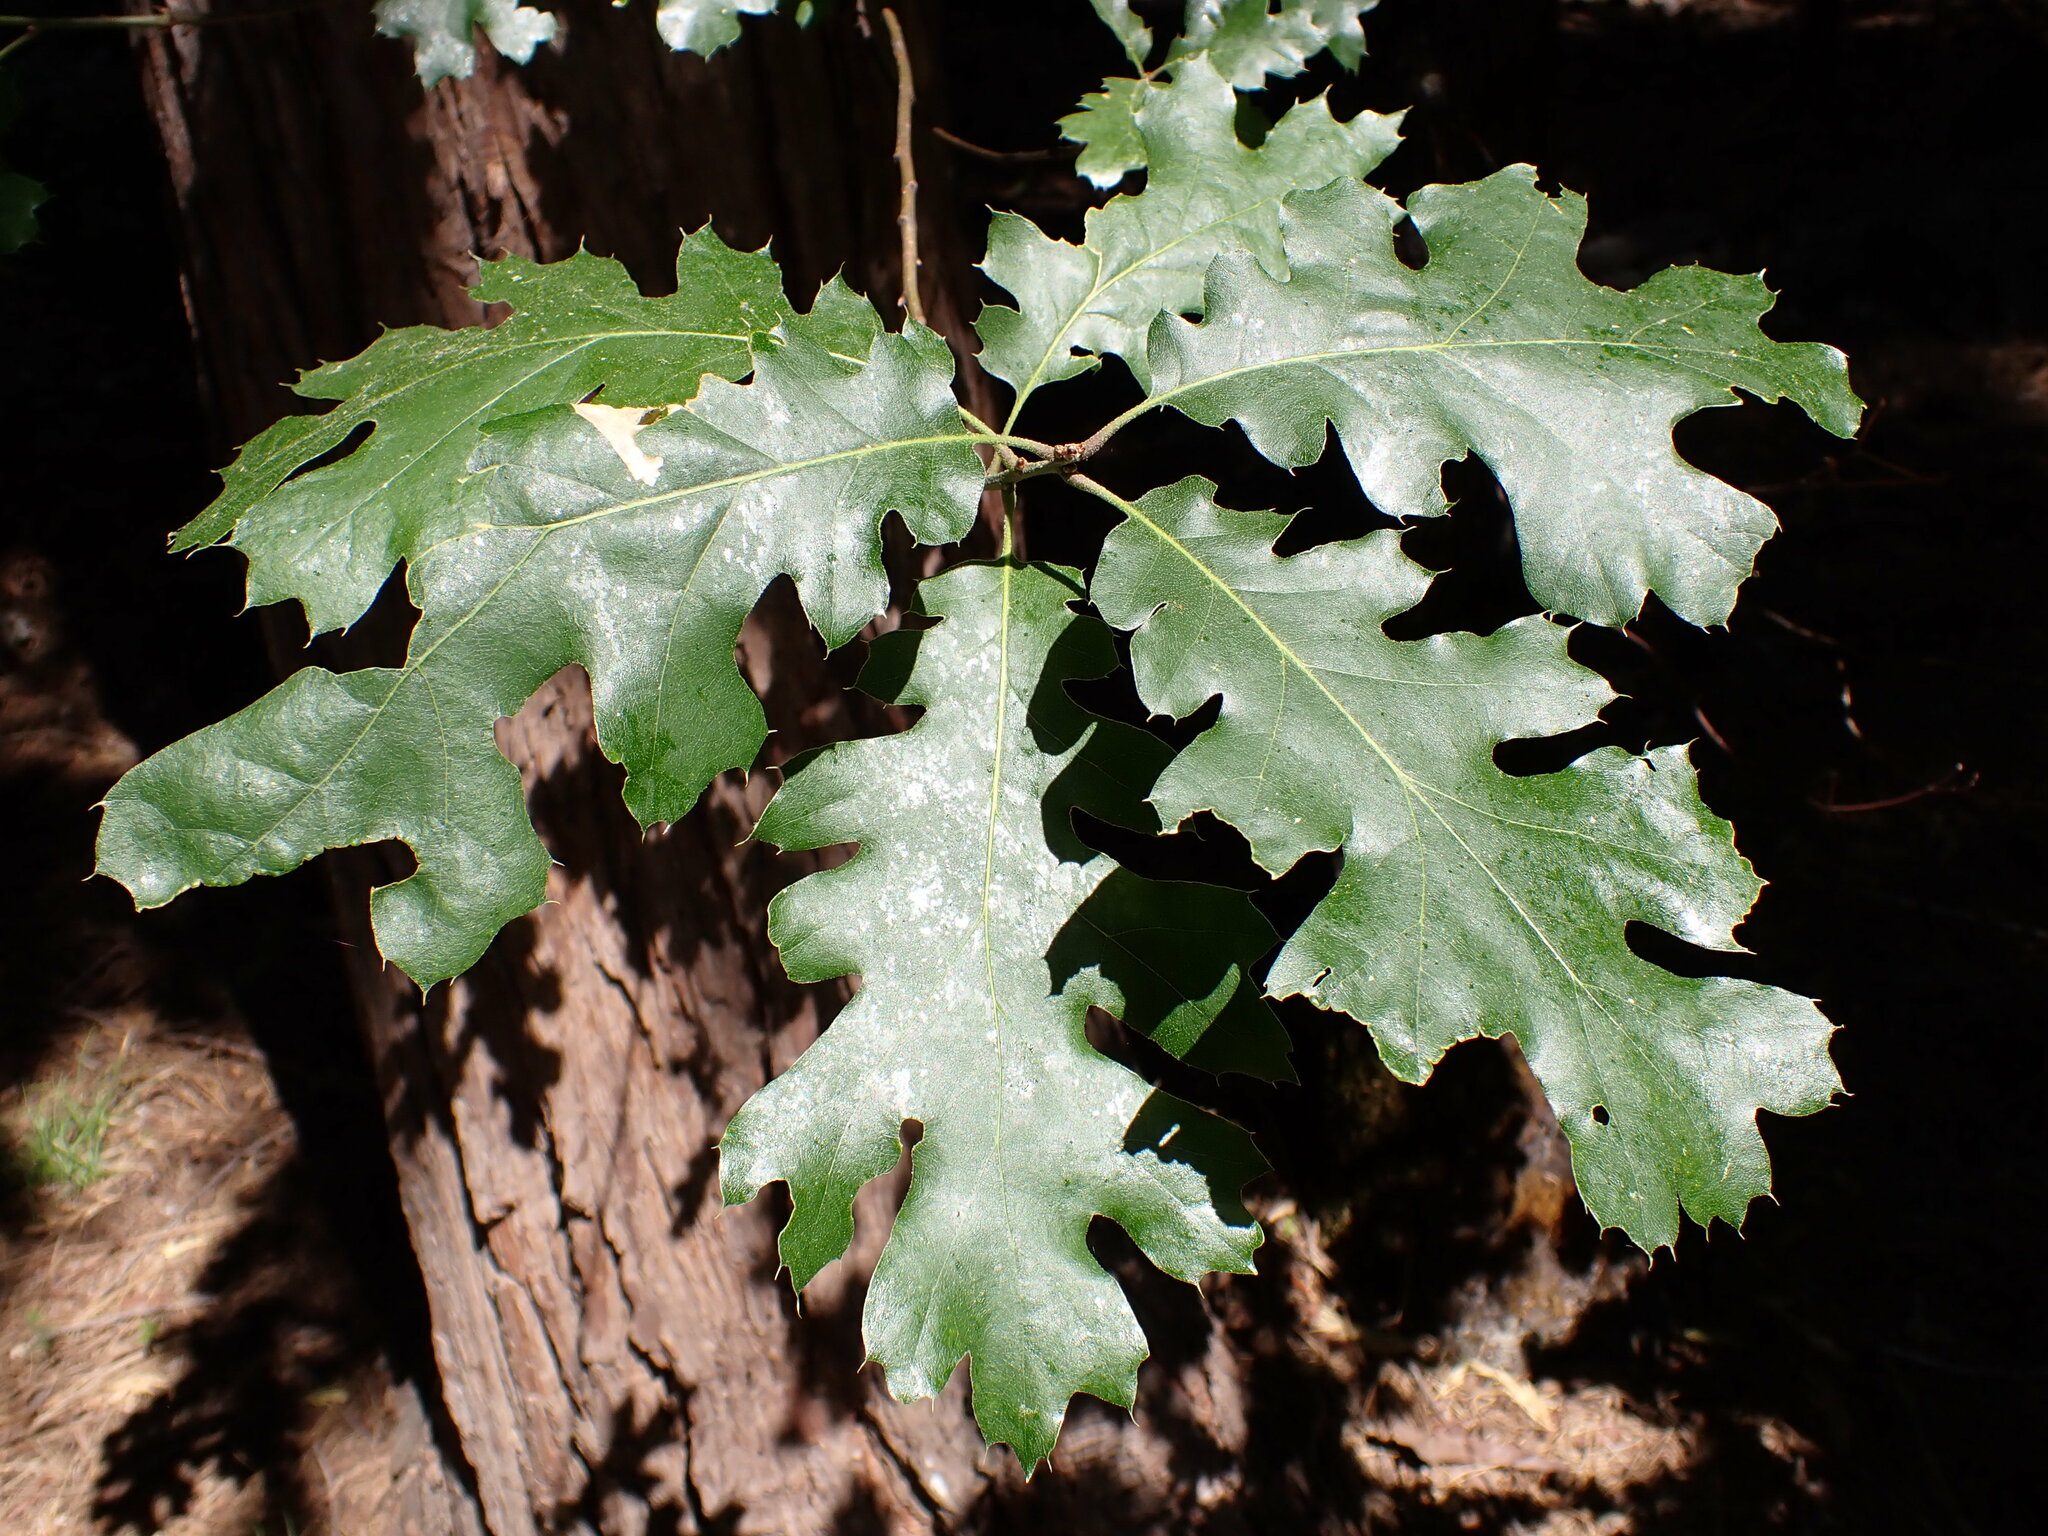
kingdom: Plantae
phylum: Tracheophyta
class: Magnoliopsida
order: Fagales
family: Fagaceae
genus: Quercus
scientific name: Quercus kelloggii
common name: California black oak
